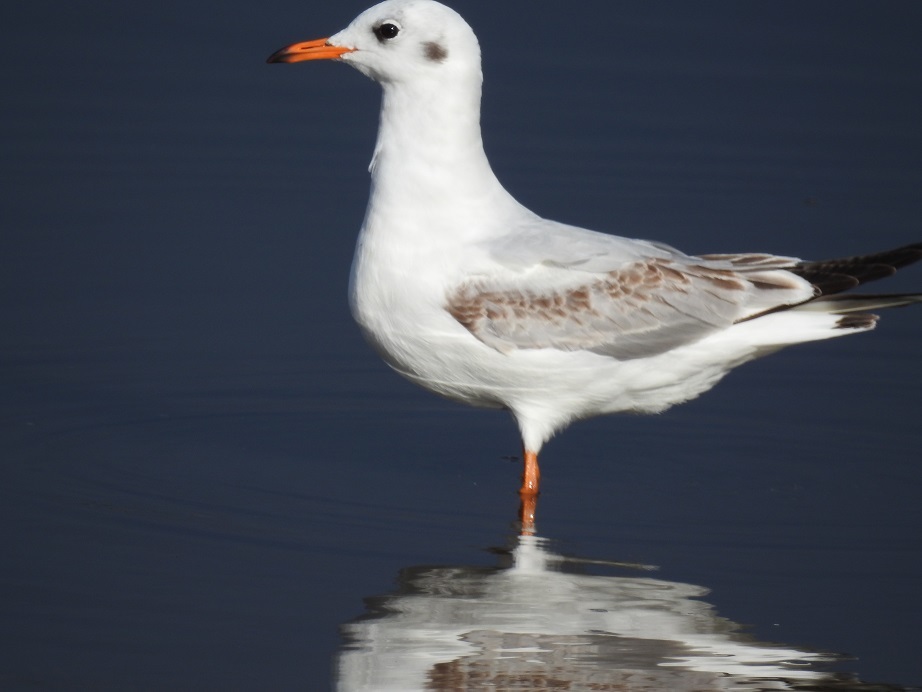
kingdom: Animalia
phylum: Chordata
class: Aves
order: Charadriiformes
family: Laridae
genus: Chroicocephalus
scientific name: Chroicocephalus ridibundus
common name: Black-headed gull
